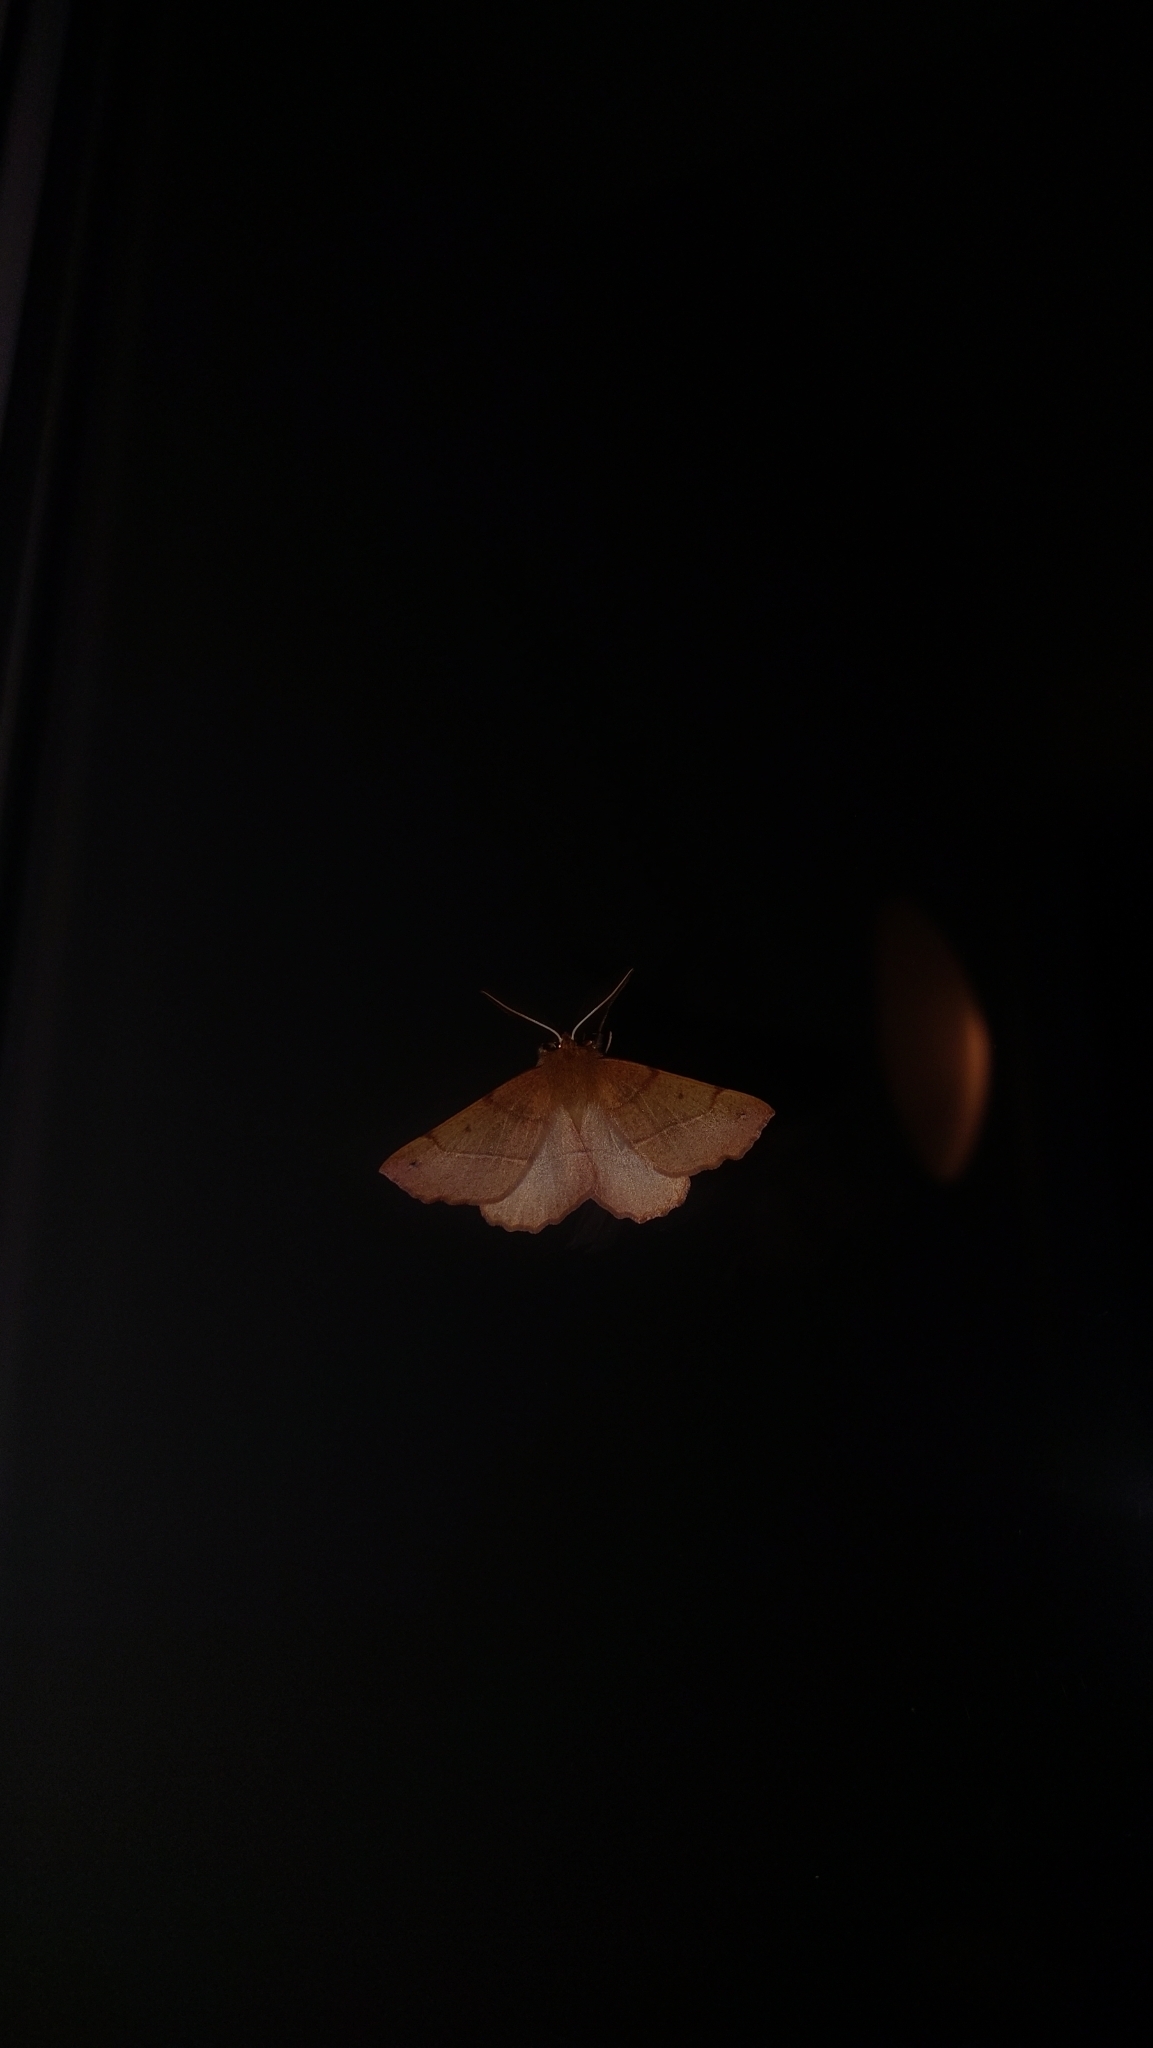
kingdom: Animalia
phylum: Arthropoda
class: Insecta
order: Lepidoptera
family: Geometridae
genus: Colotois
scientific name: Colotois pennaria
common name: Feathered thorn
